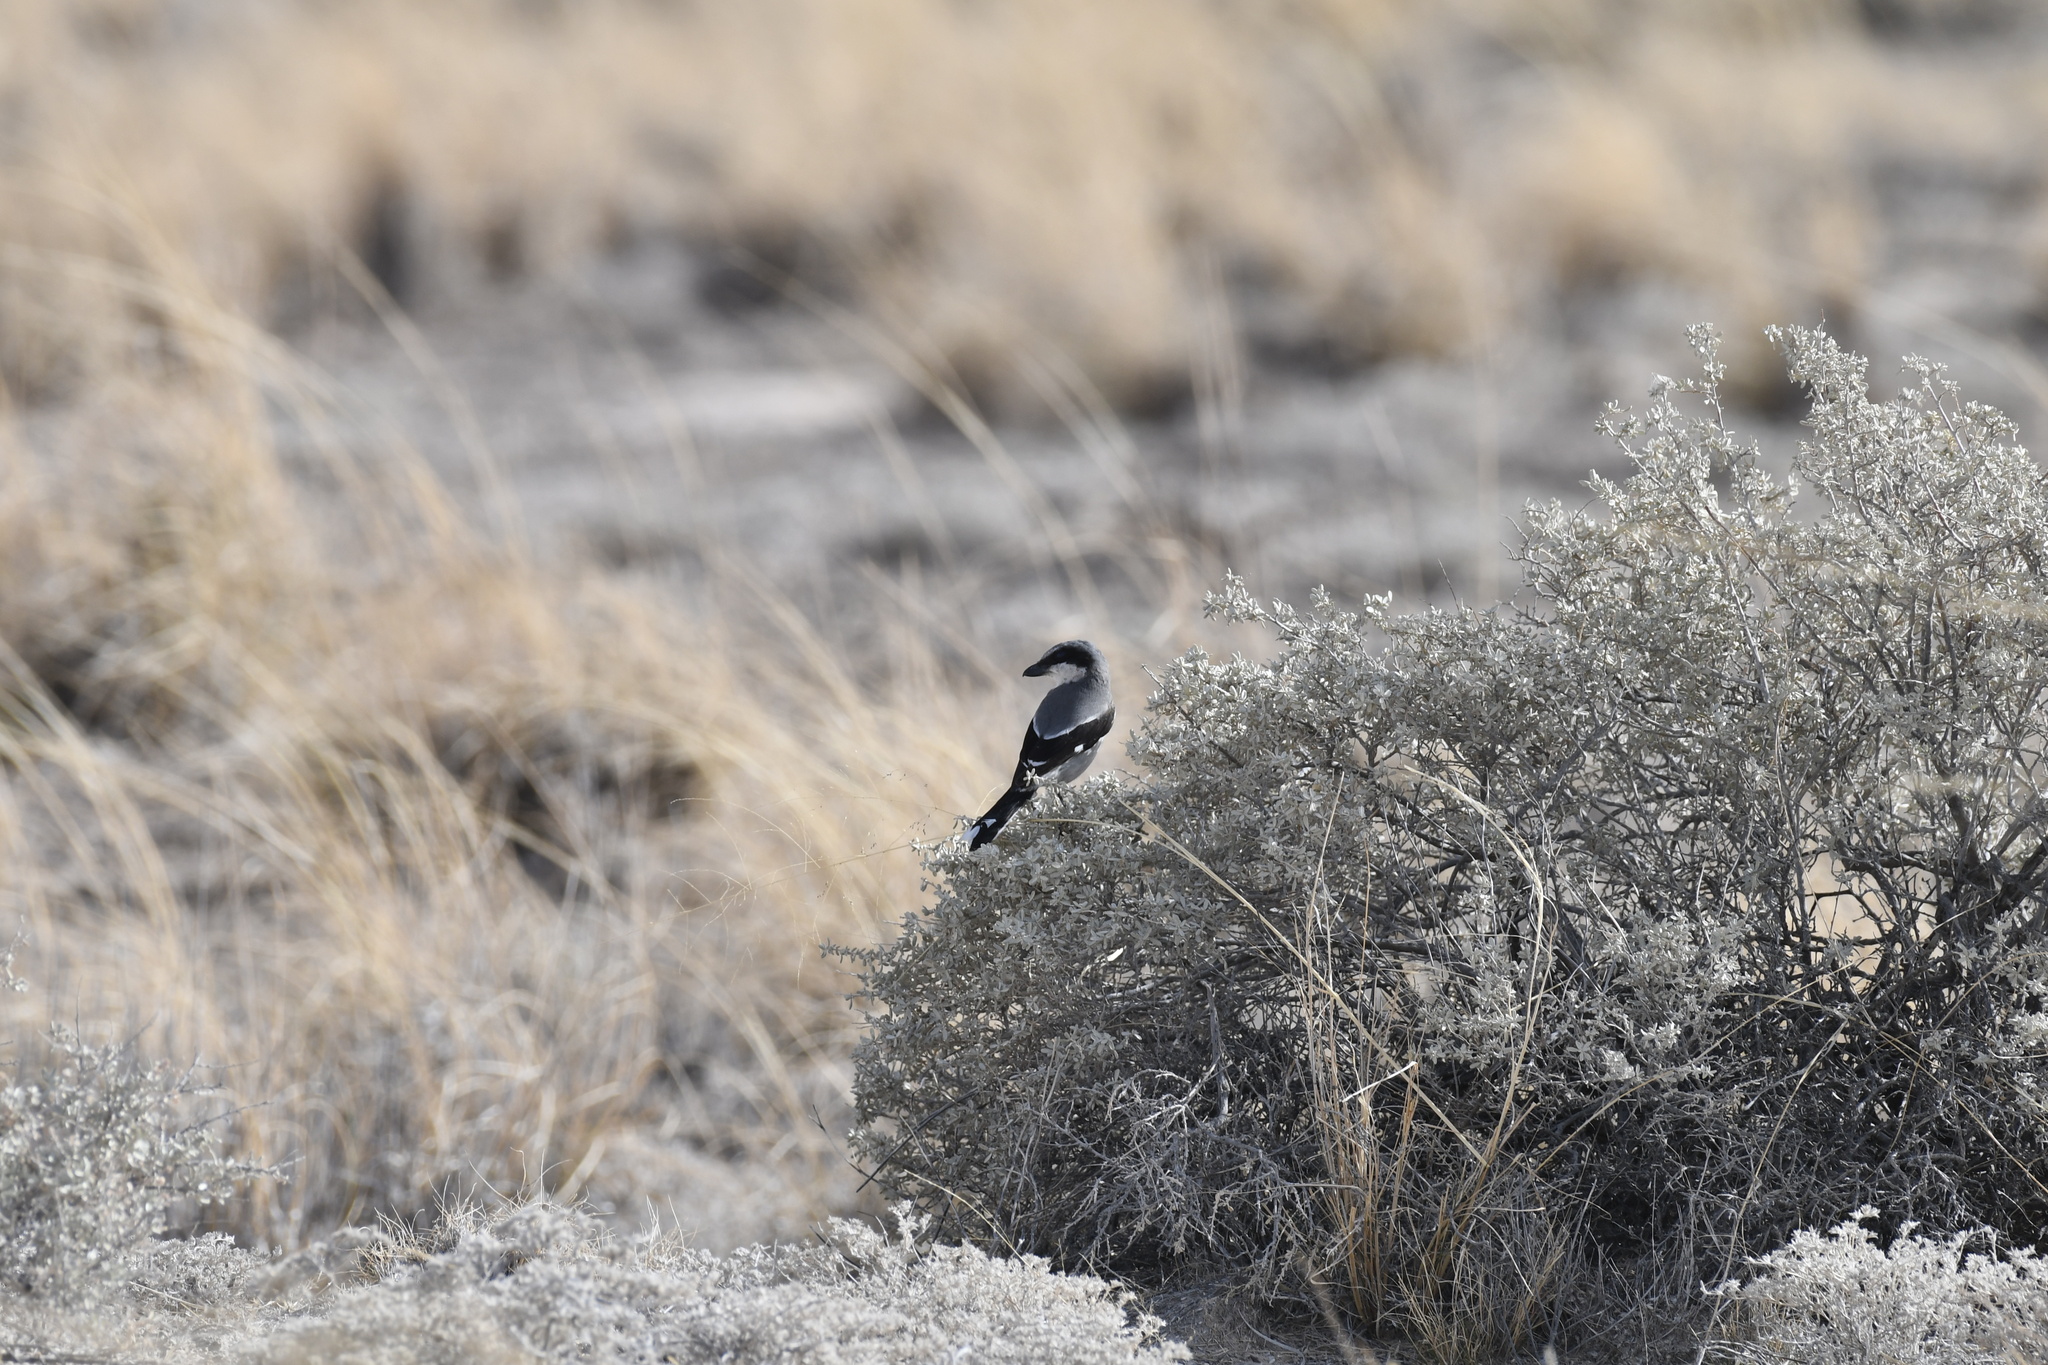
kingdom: Animalia
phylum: Chordata
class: Aves
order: Passeriformes
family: Laniidae
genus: Lanius
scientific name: Lanius ludovicianus
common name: Loggerhead shrike
